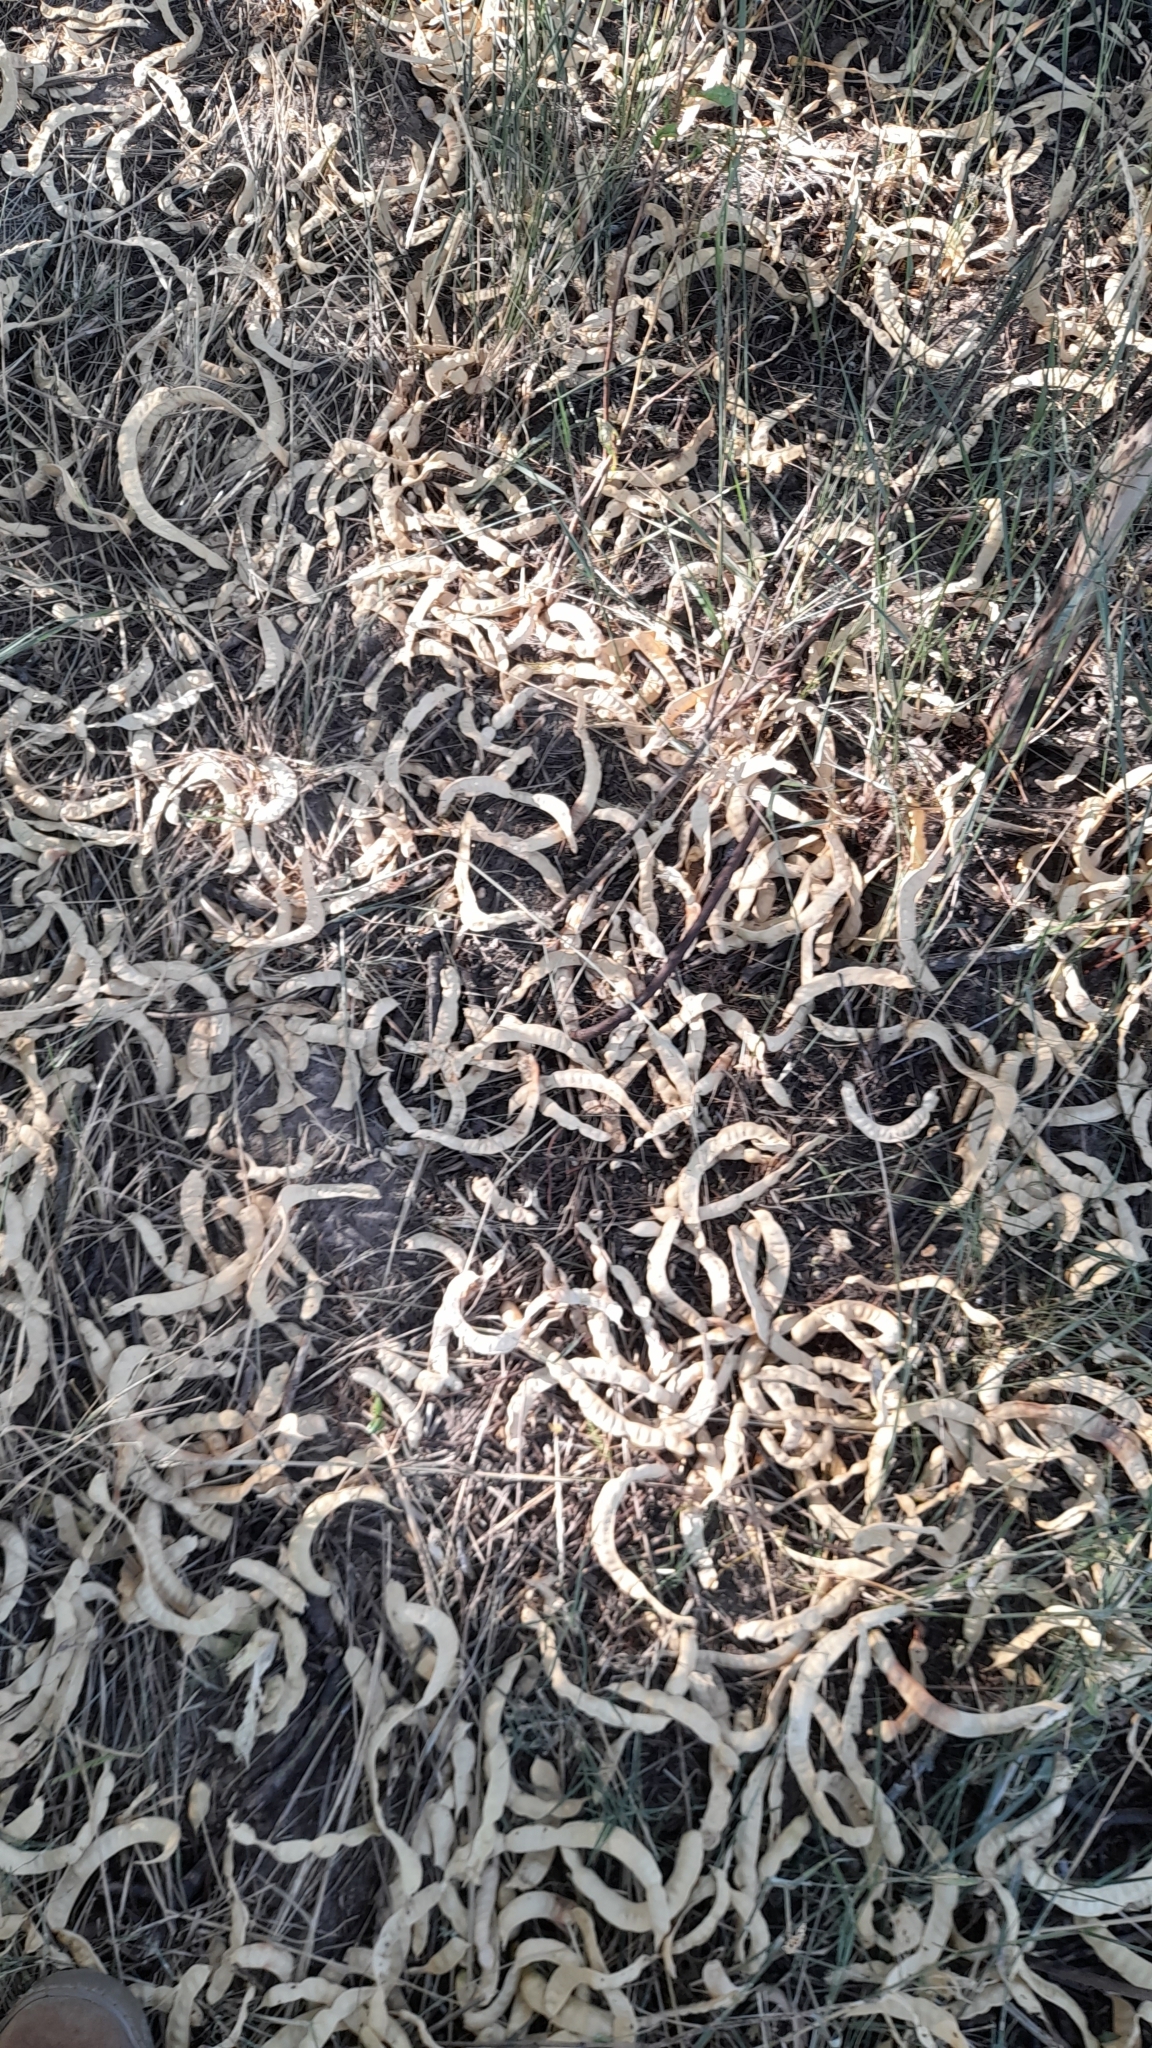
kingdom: Plantae
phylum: Tracheophyta
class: Magnoliopsida
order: Fabales
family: Fabaceae
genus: Prosopis
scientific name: Prosopis alba
